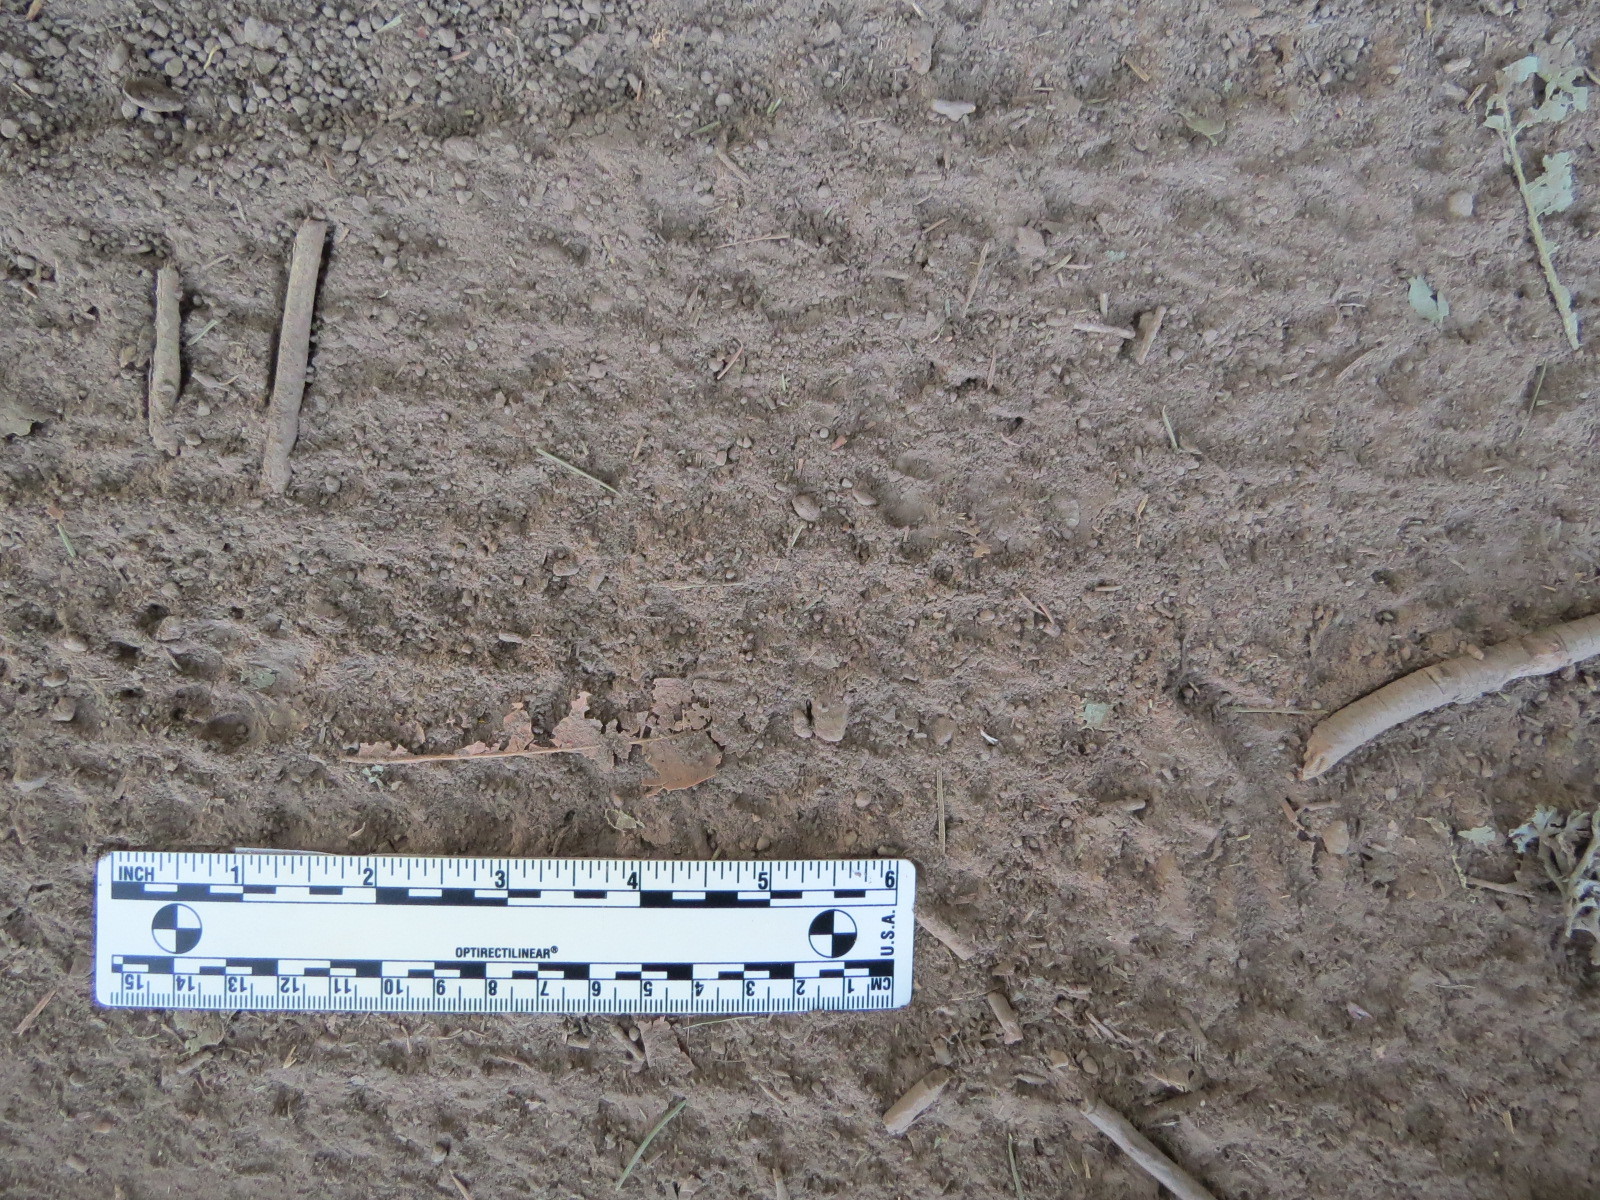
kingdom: Animalia
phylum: Chordata
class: Mammalia
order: Carnivora
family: Mephitidae
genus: Mephitis
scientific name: Mephitis mephitis
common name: Striped skunk
